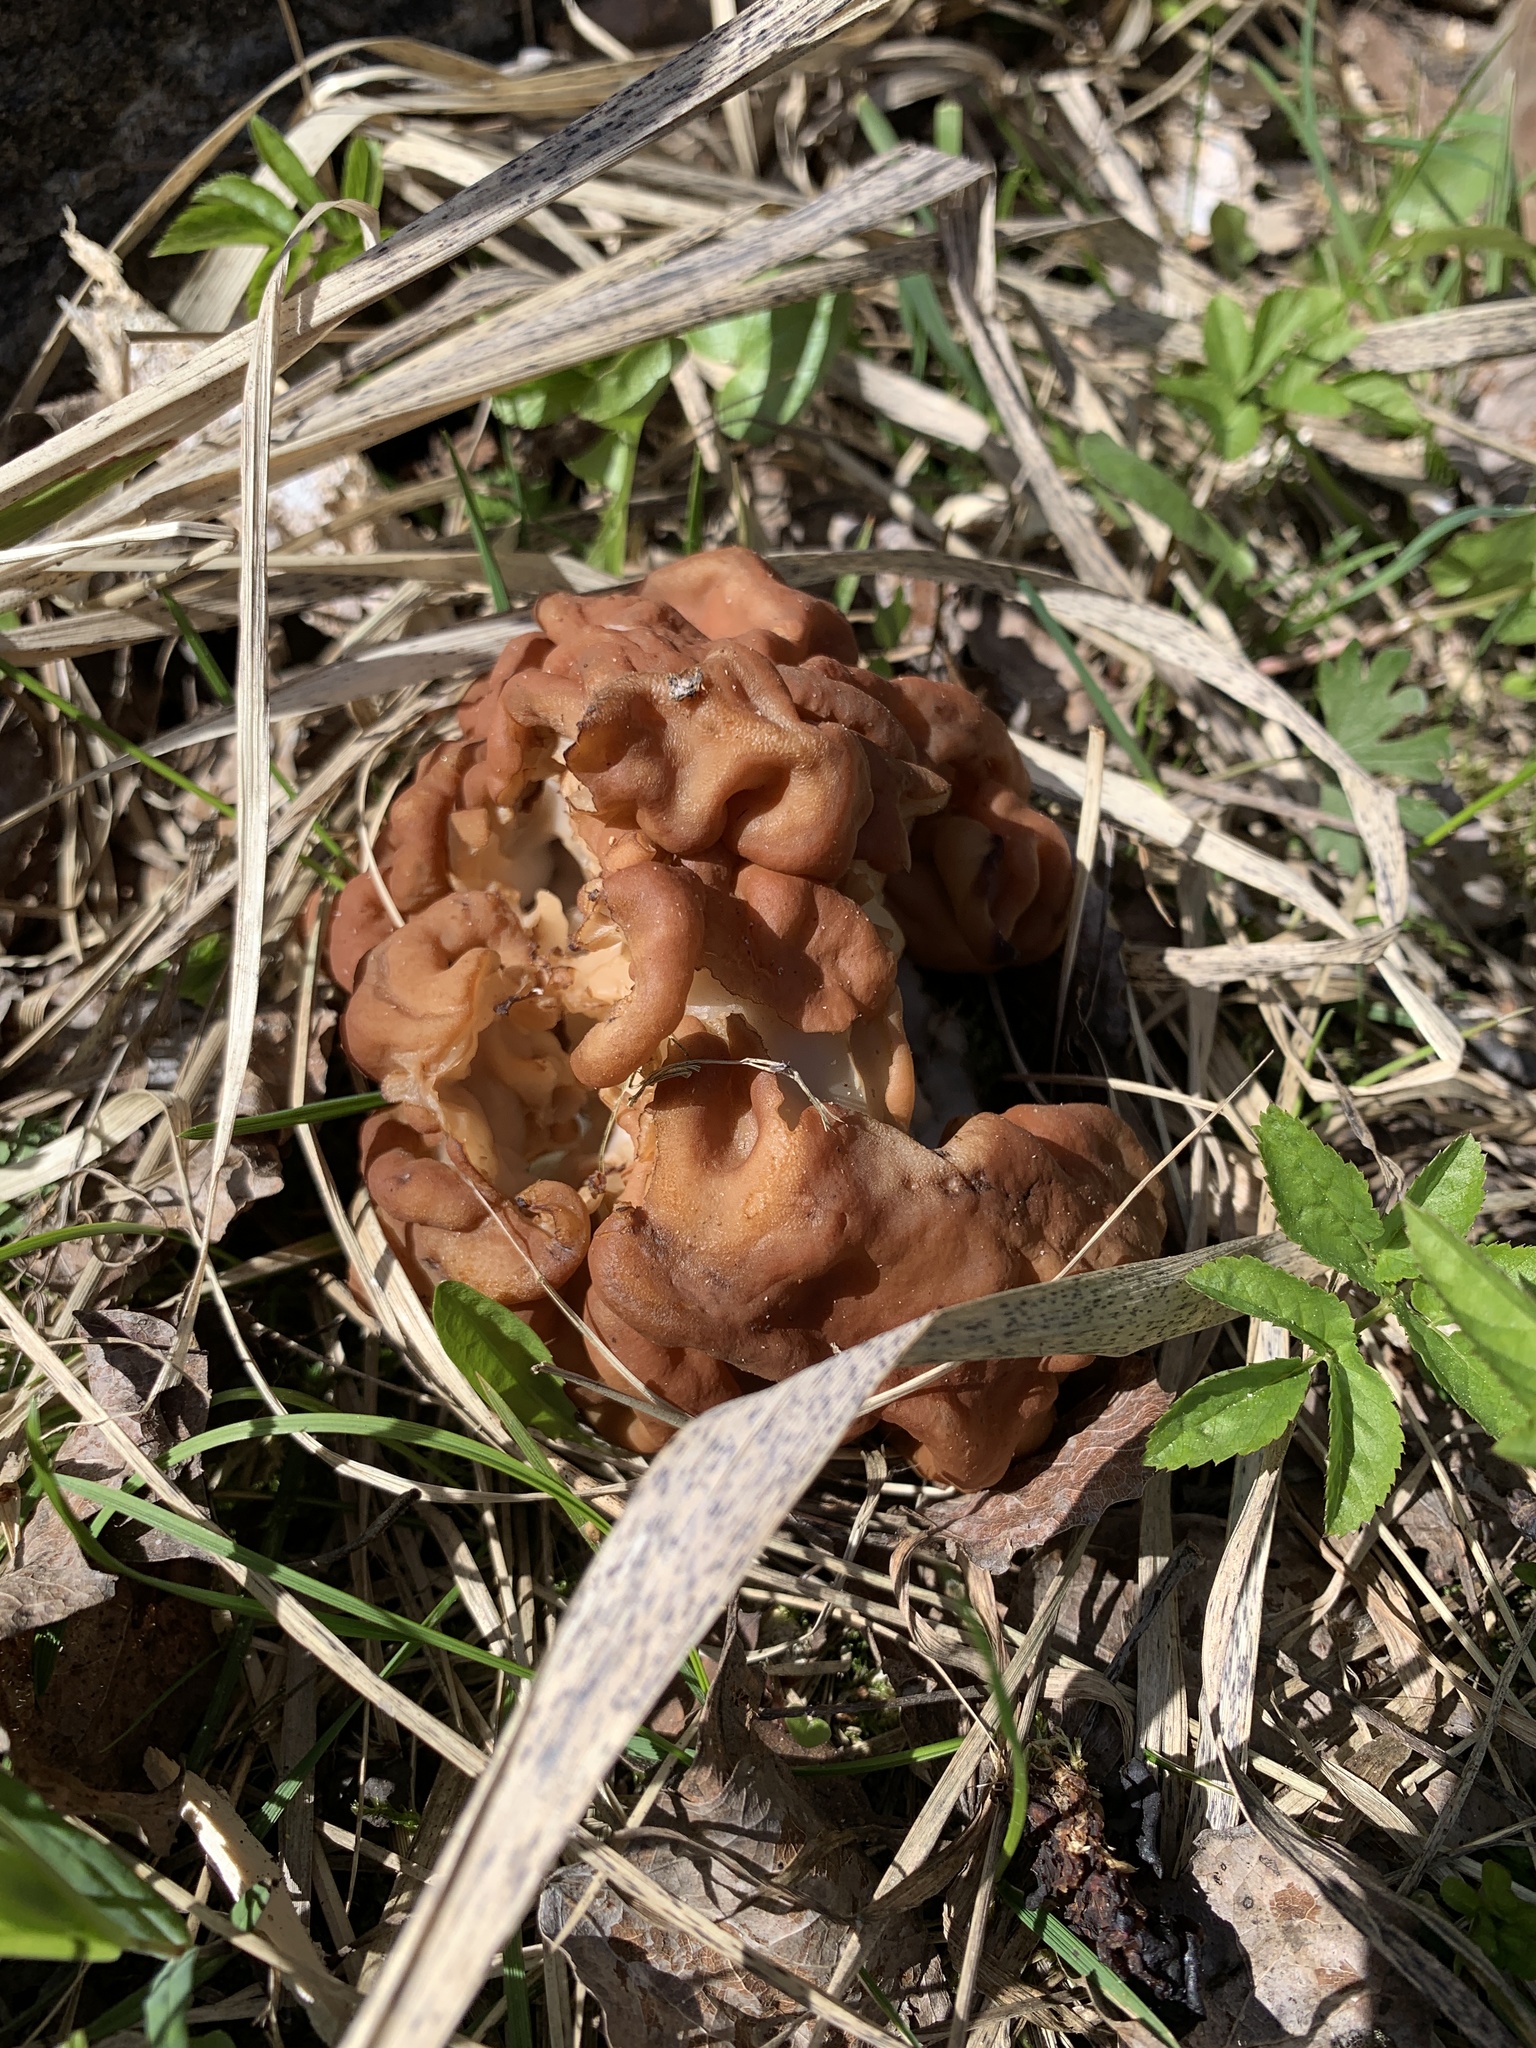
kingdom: Fungi
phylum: Ascomycota
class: Pezizomycetes
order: Pezizales
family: Discinaceae
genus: Gyromitra
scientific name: Gyromitra gigas
